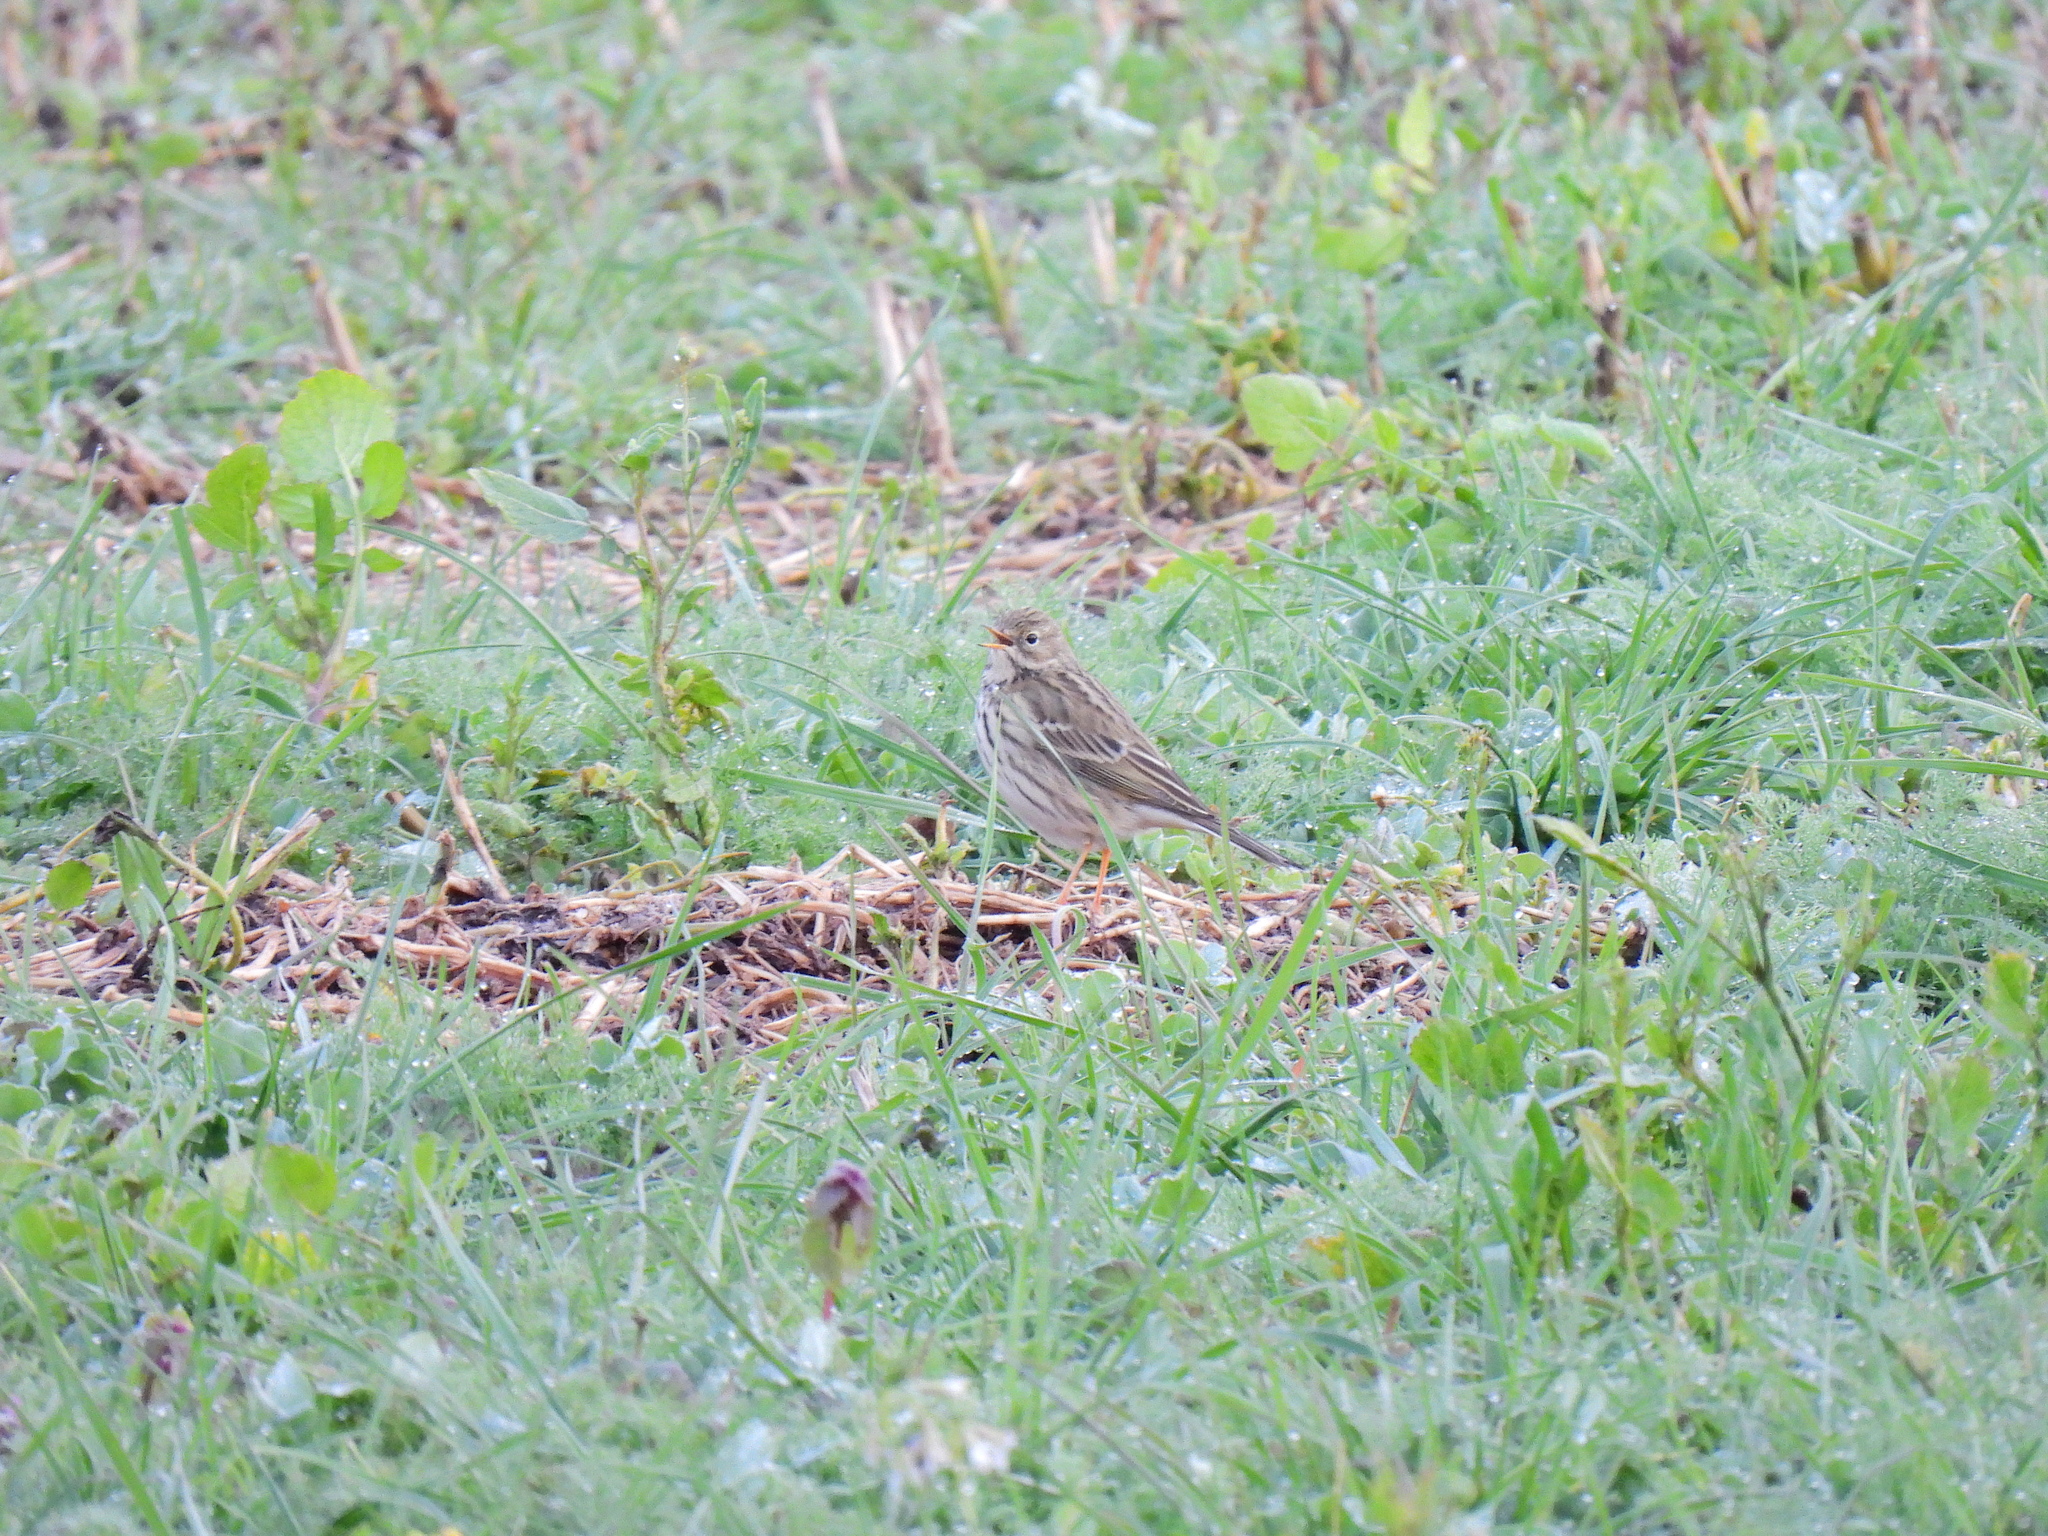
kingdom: Animalia
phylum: Chordata
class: Aves
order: Passeriformes
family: Motacillidae
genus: Anthus
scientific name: Anthus pratensis
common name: Meadow pipit
